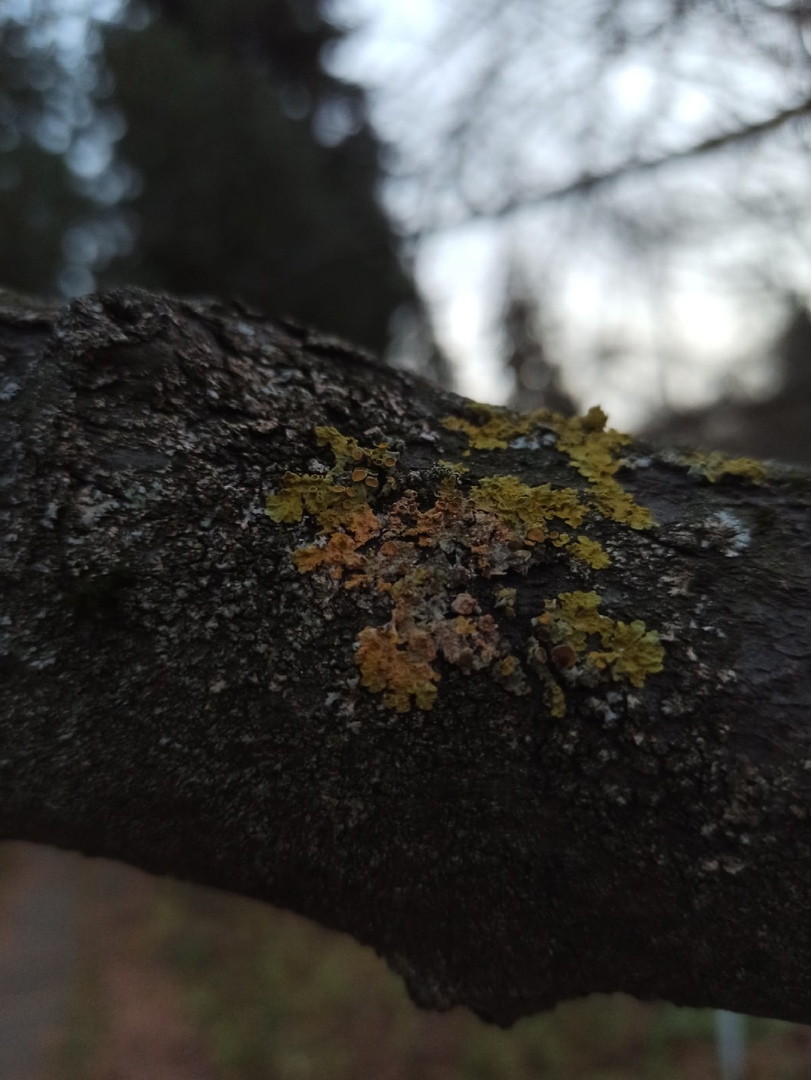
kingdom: Fungi
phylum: Ascomycota
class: Lecanoromycetes
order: Teloschistales
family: Teloschistaceae
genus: Xanthoria
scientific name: Xanthoria parietina
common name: Common orange lichen
